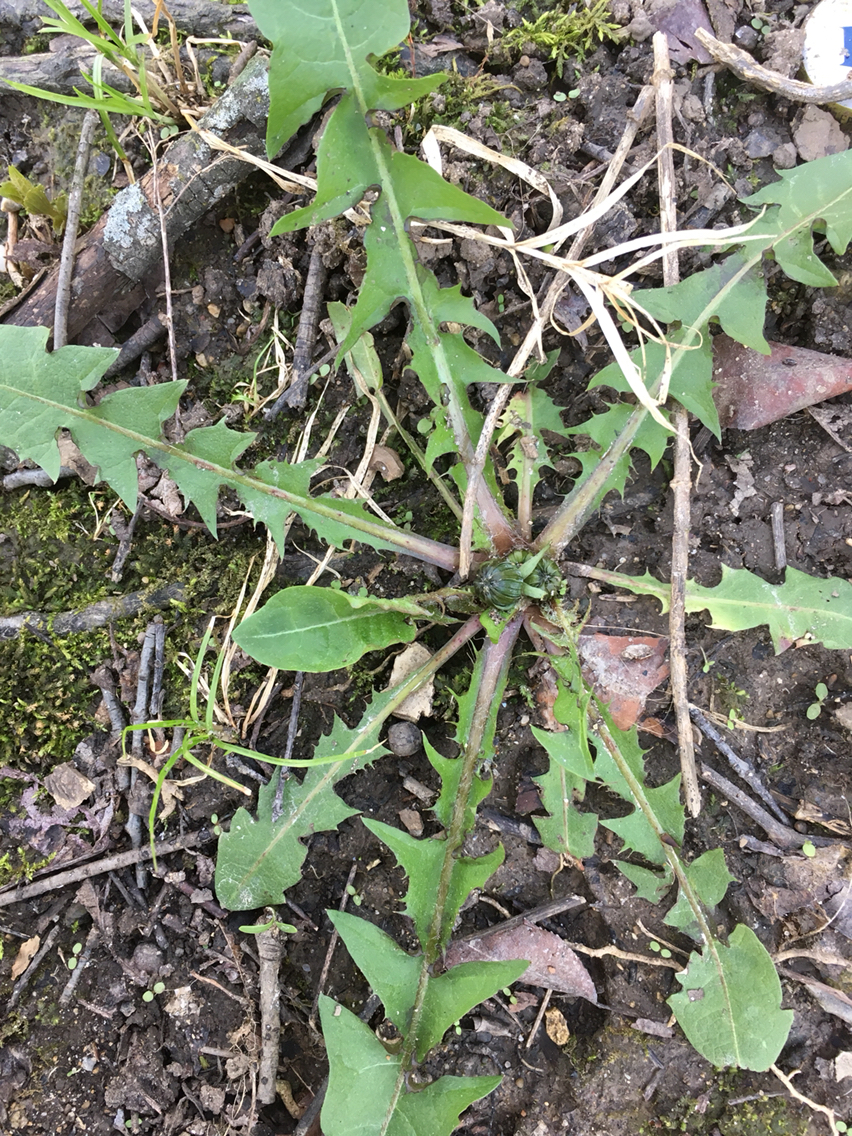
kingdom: Plantae
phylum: Tracheophyta
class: Magnoliopsida
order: Asterales
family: Asteraceae
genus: Taraxacum
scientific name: Taraxacum officinale
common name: Common dandelion
